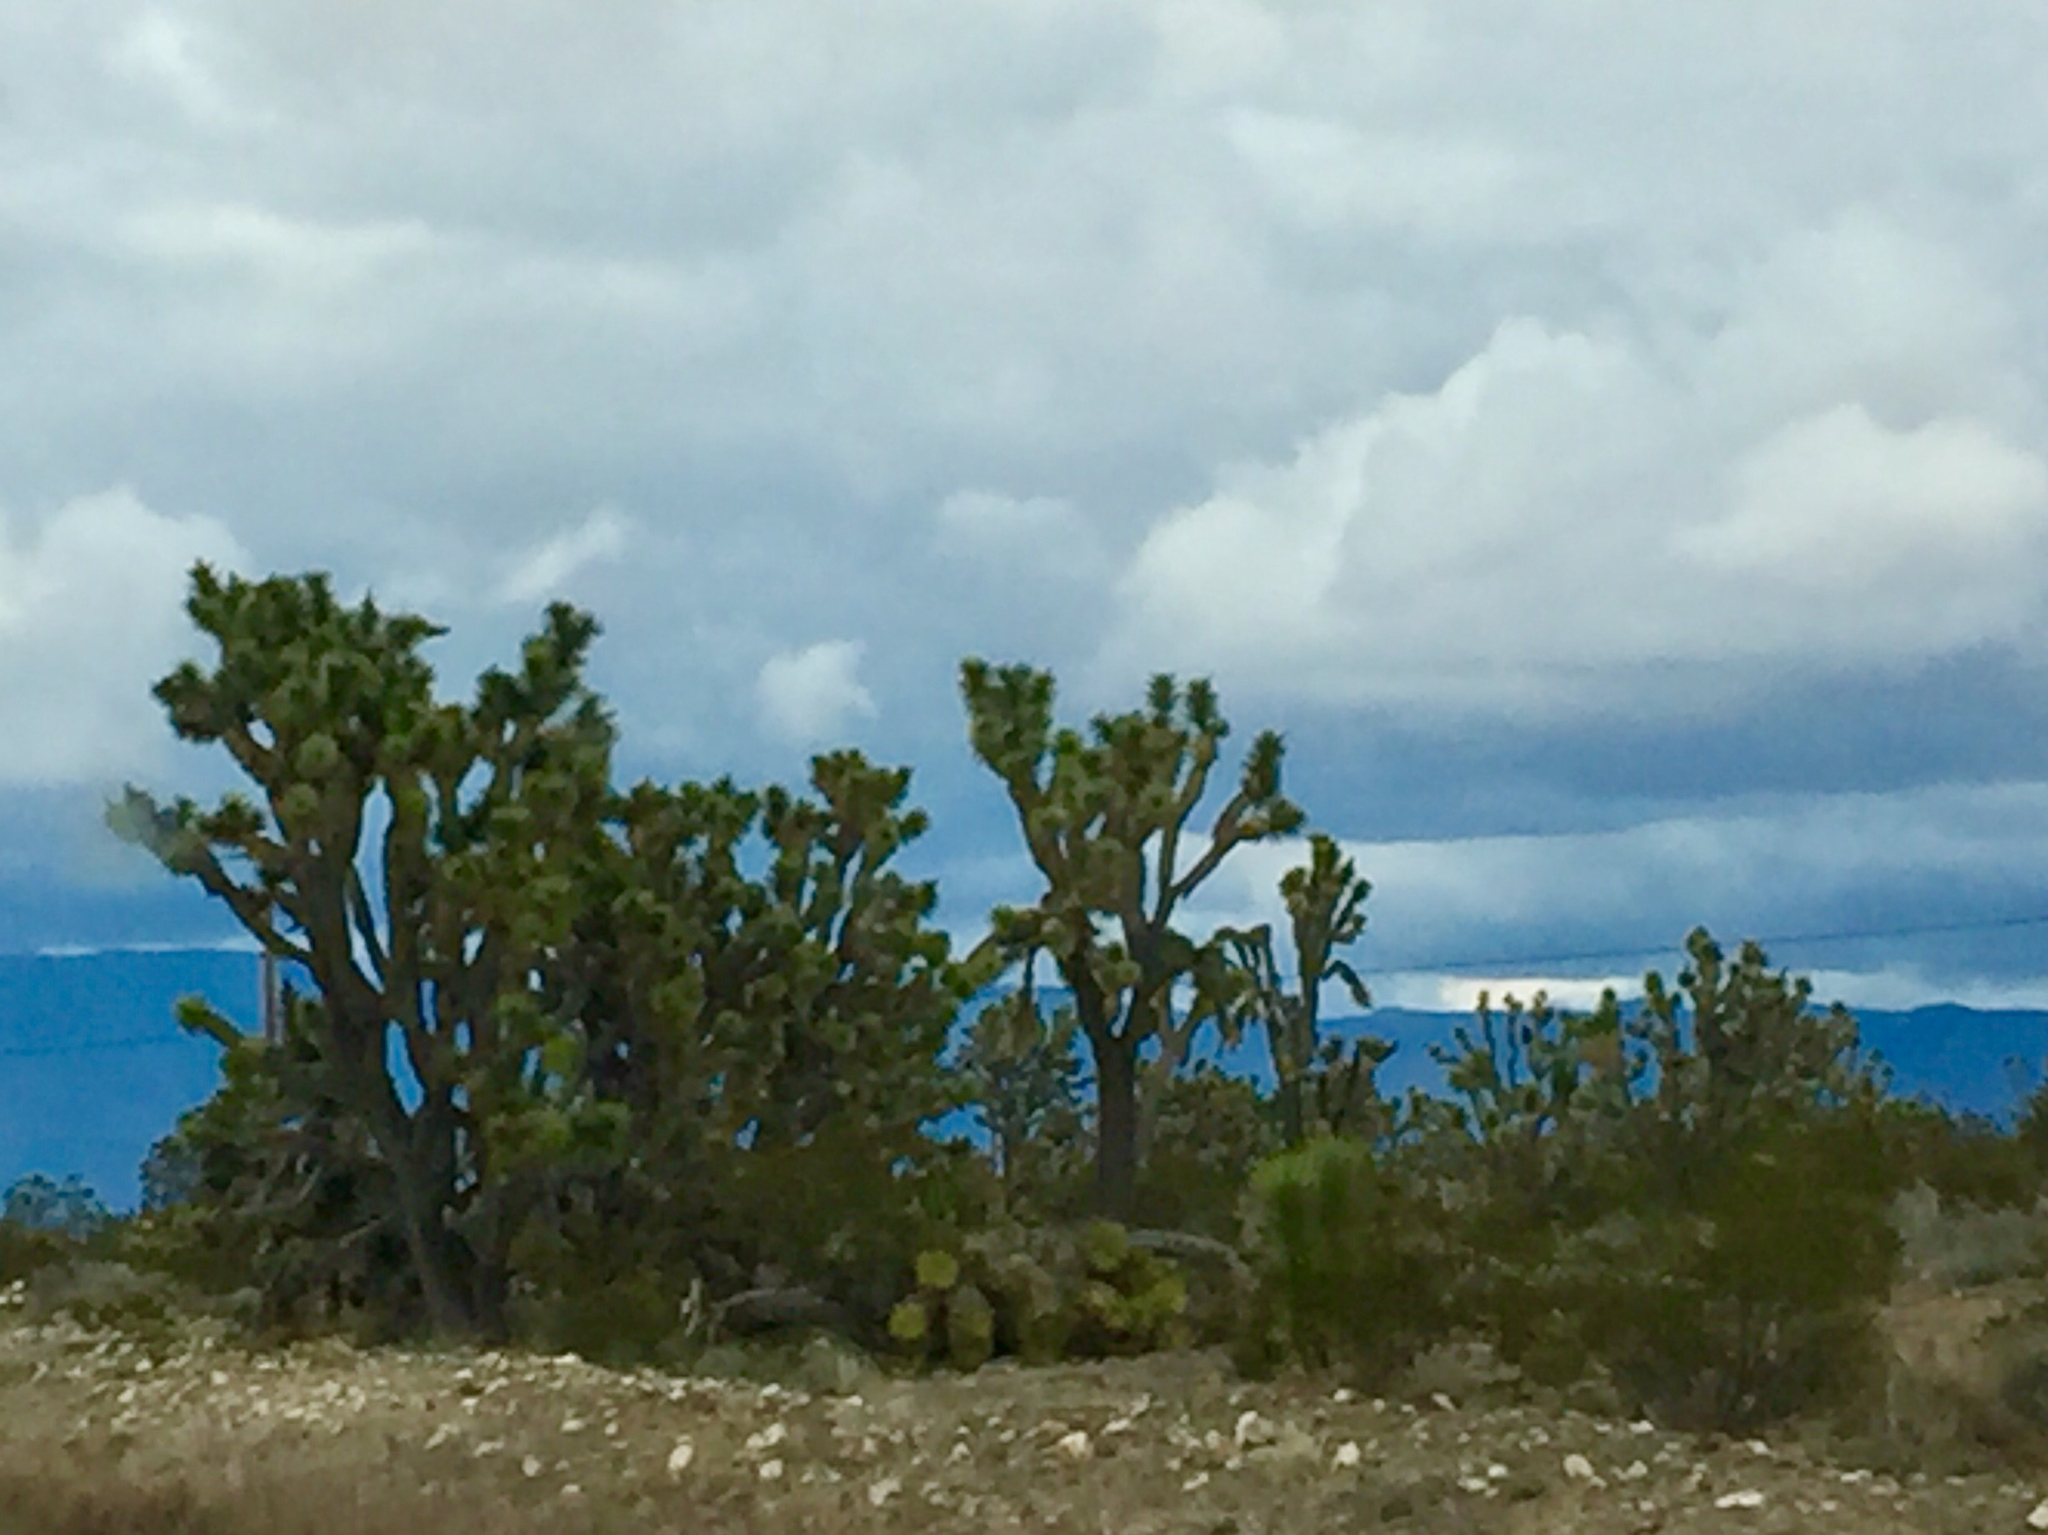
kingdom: Plantae
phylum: Tracheophyta
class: Liliopsida
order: Asparagales
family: Asparagaceae
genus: Yucca
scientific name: Yucca brevifolia
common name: Joshua tree
